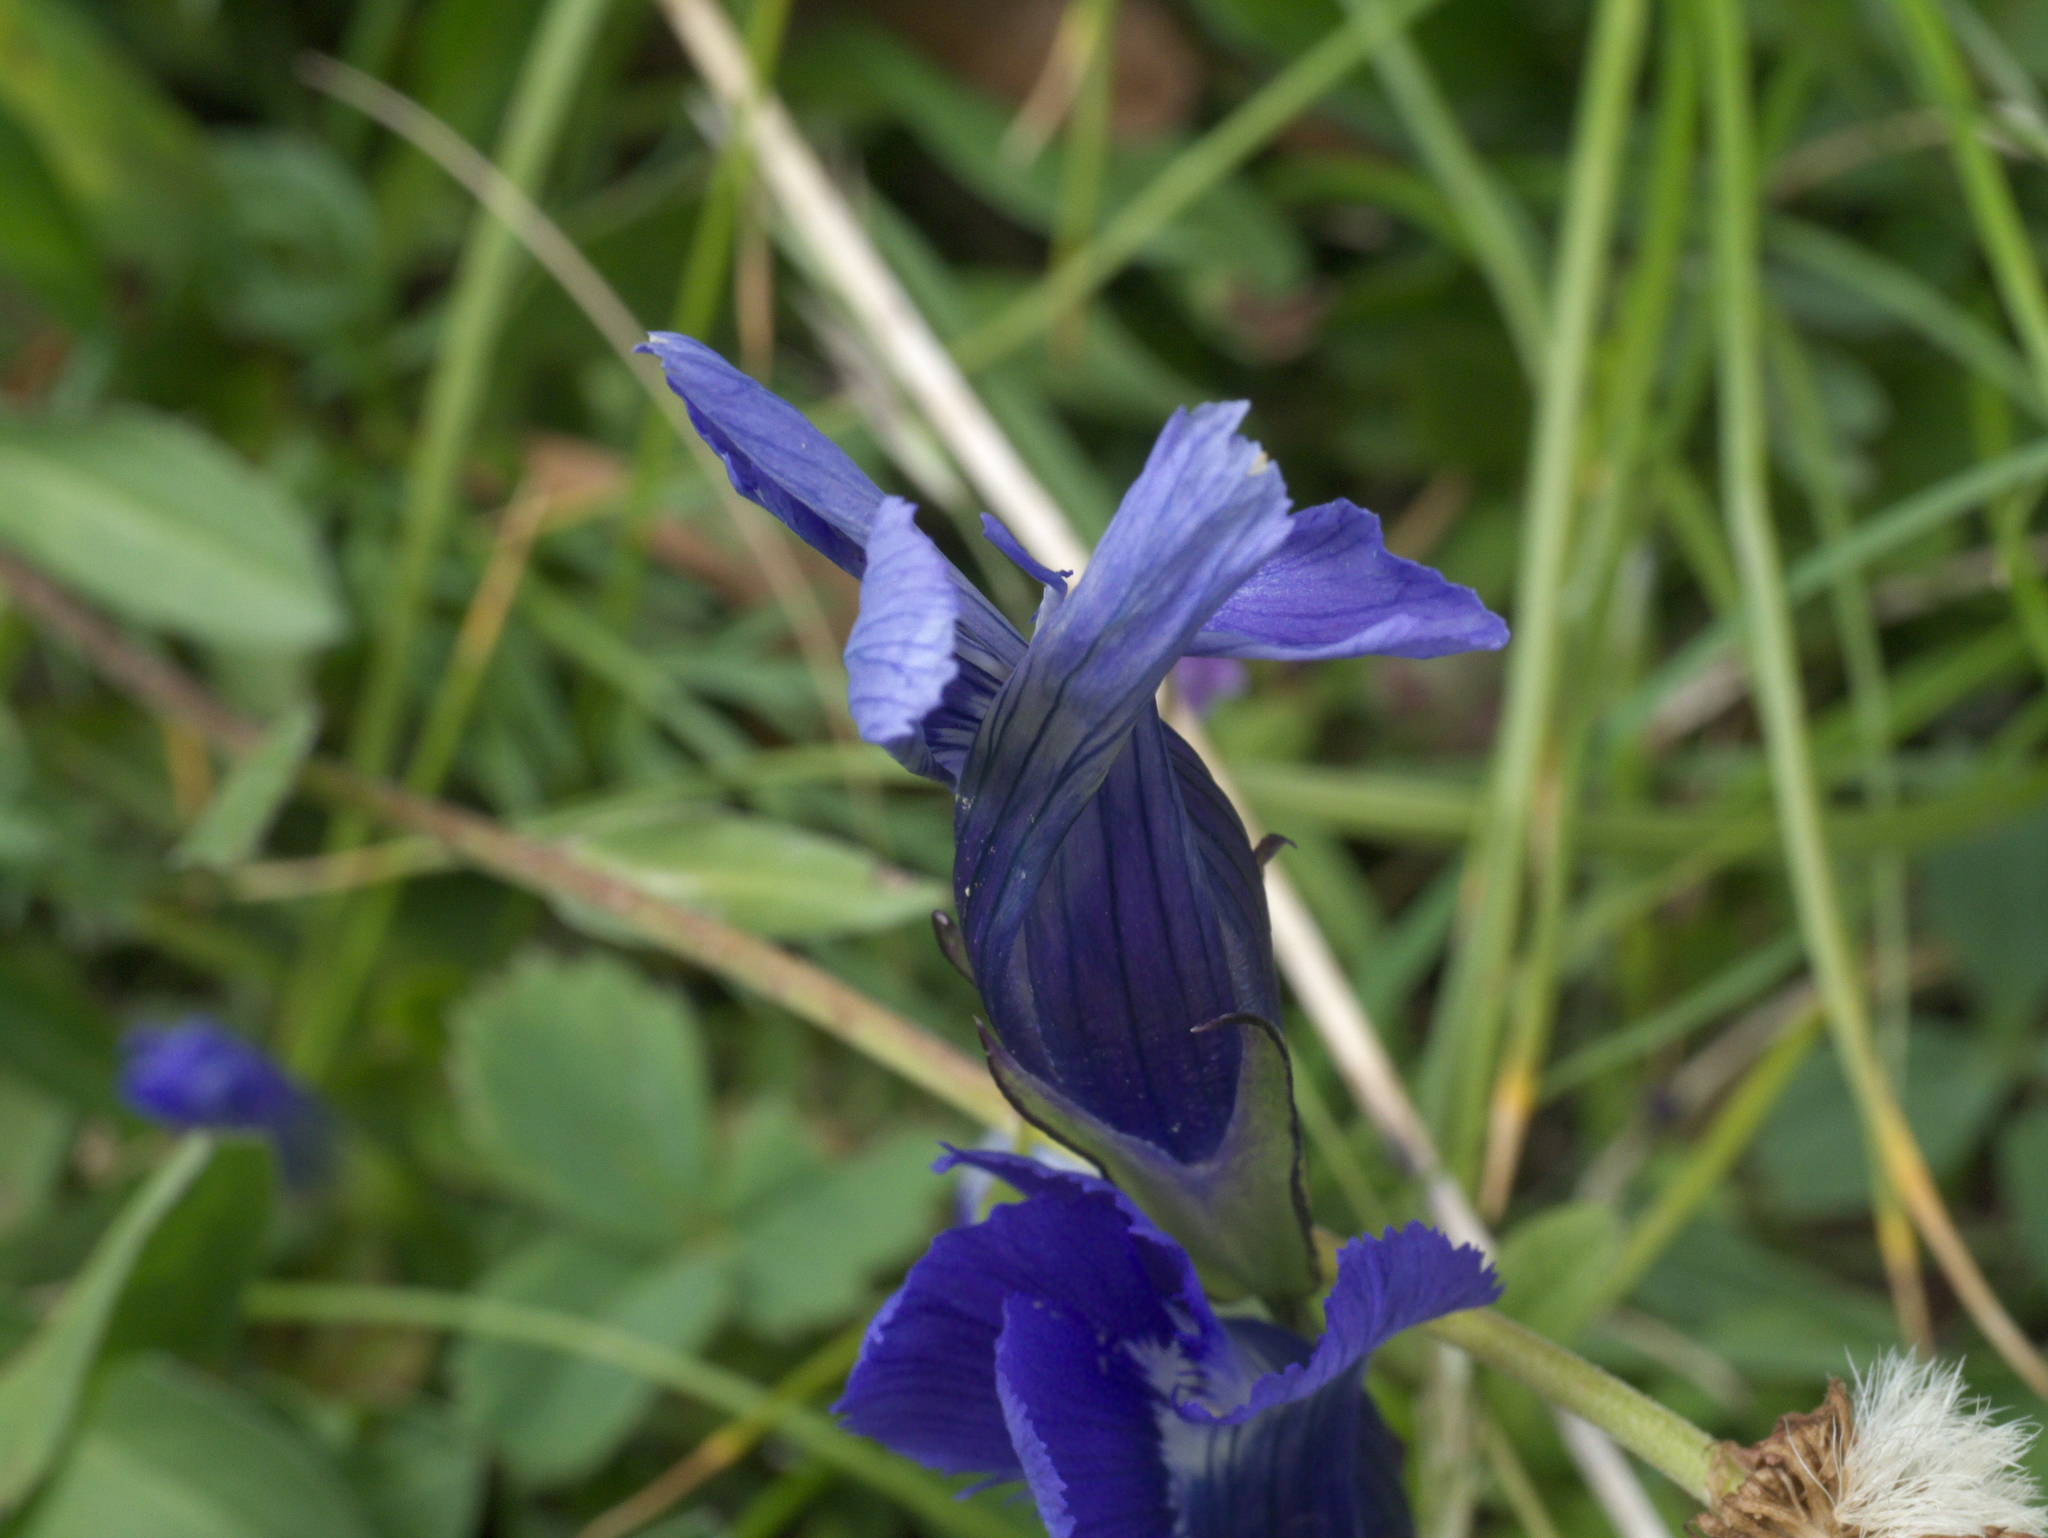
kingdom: Plantae
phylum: Tracheophyta
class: Magnoliopsida
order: Gentianales
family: Gentianaceae
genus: Gentianopsis
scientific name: Gentianopsis thermalis
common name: Rocky mountain fringed-gentian
